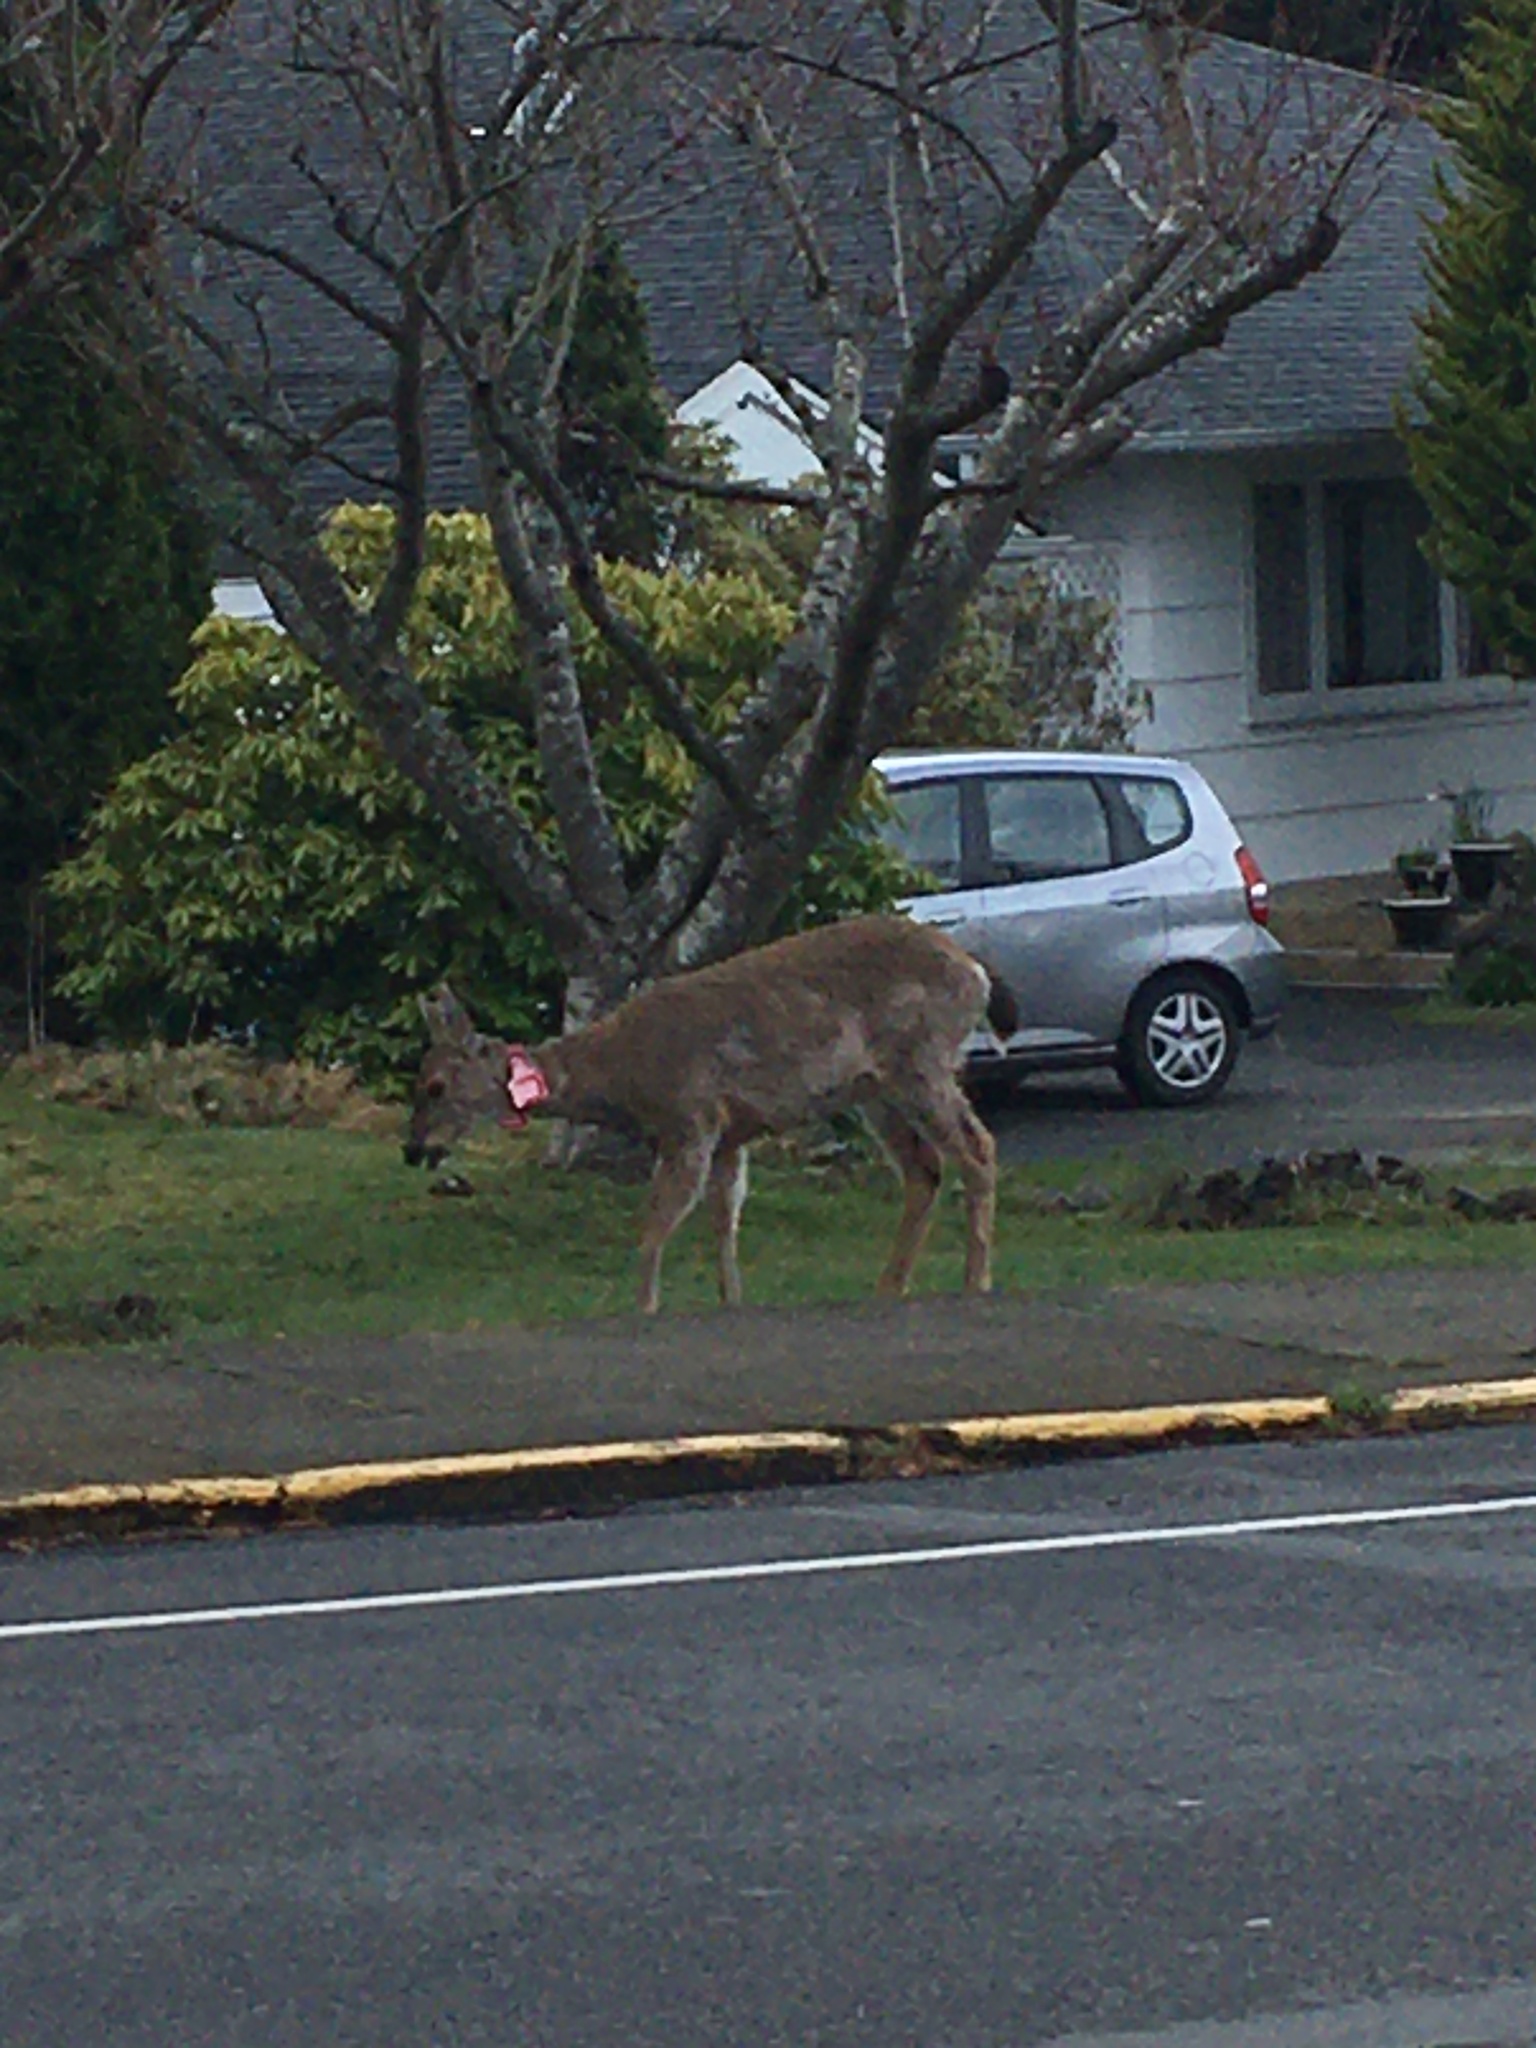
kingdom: Animalia
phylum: Chordata
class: Mammalia
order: Artiodactyla
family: Cervidae
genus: Odocoileus
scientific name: Odocoileus hemionus
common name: Mule deer
